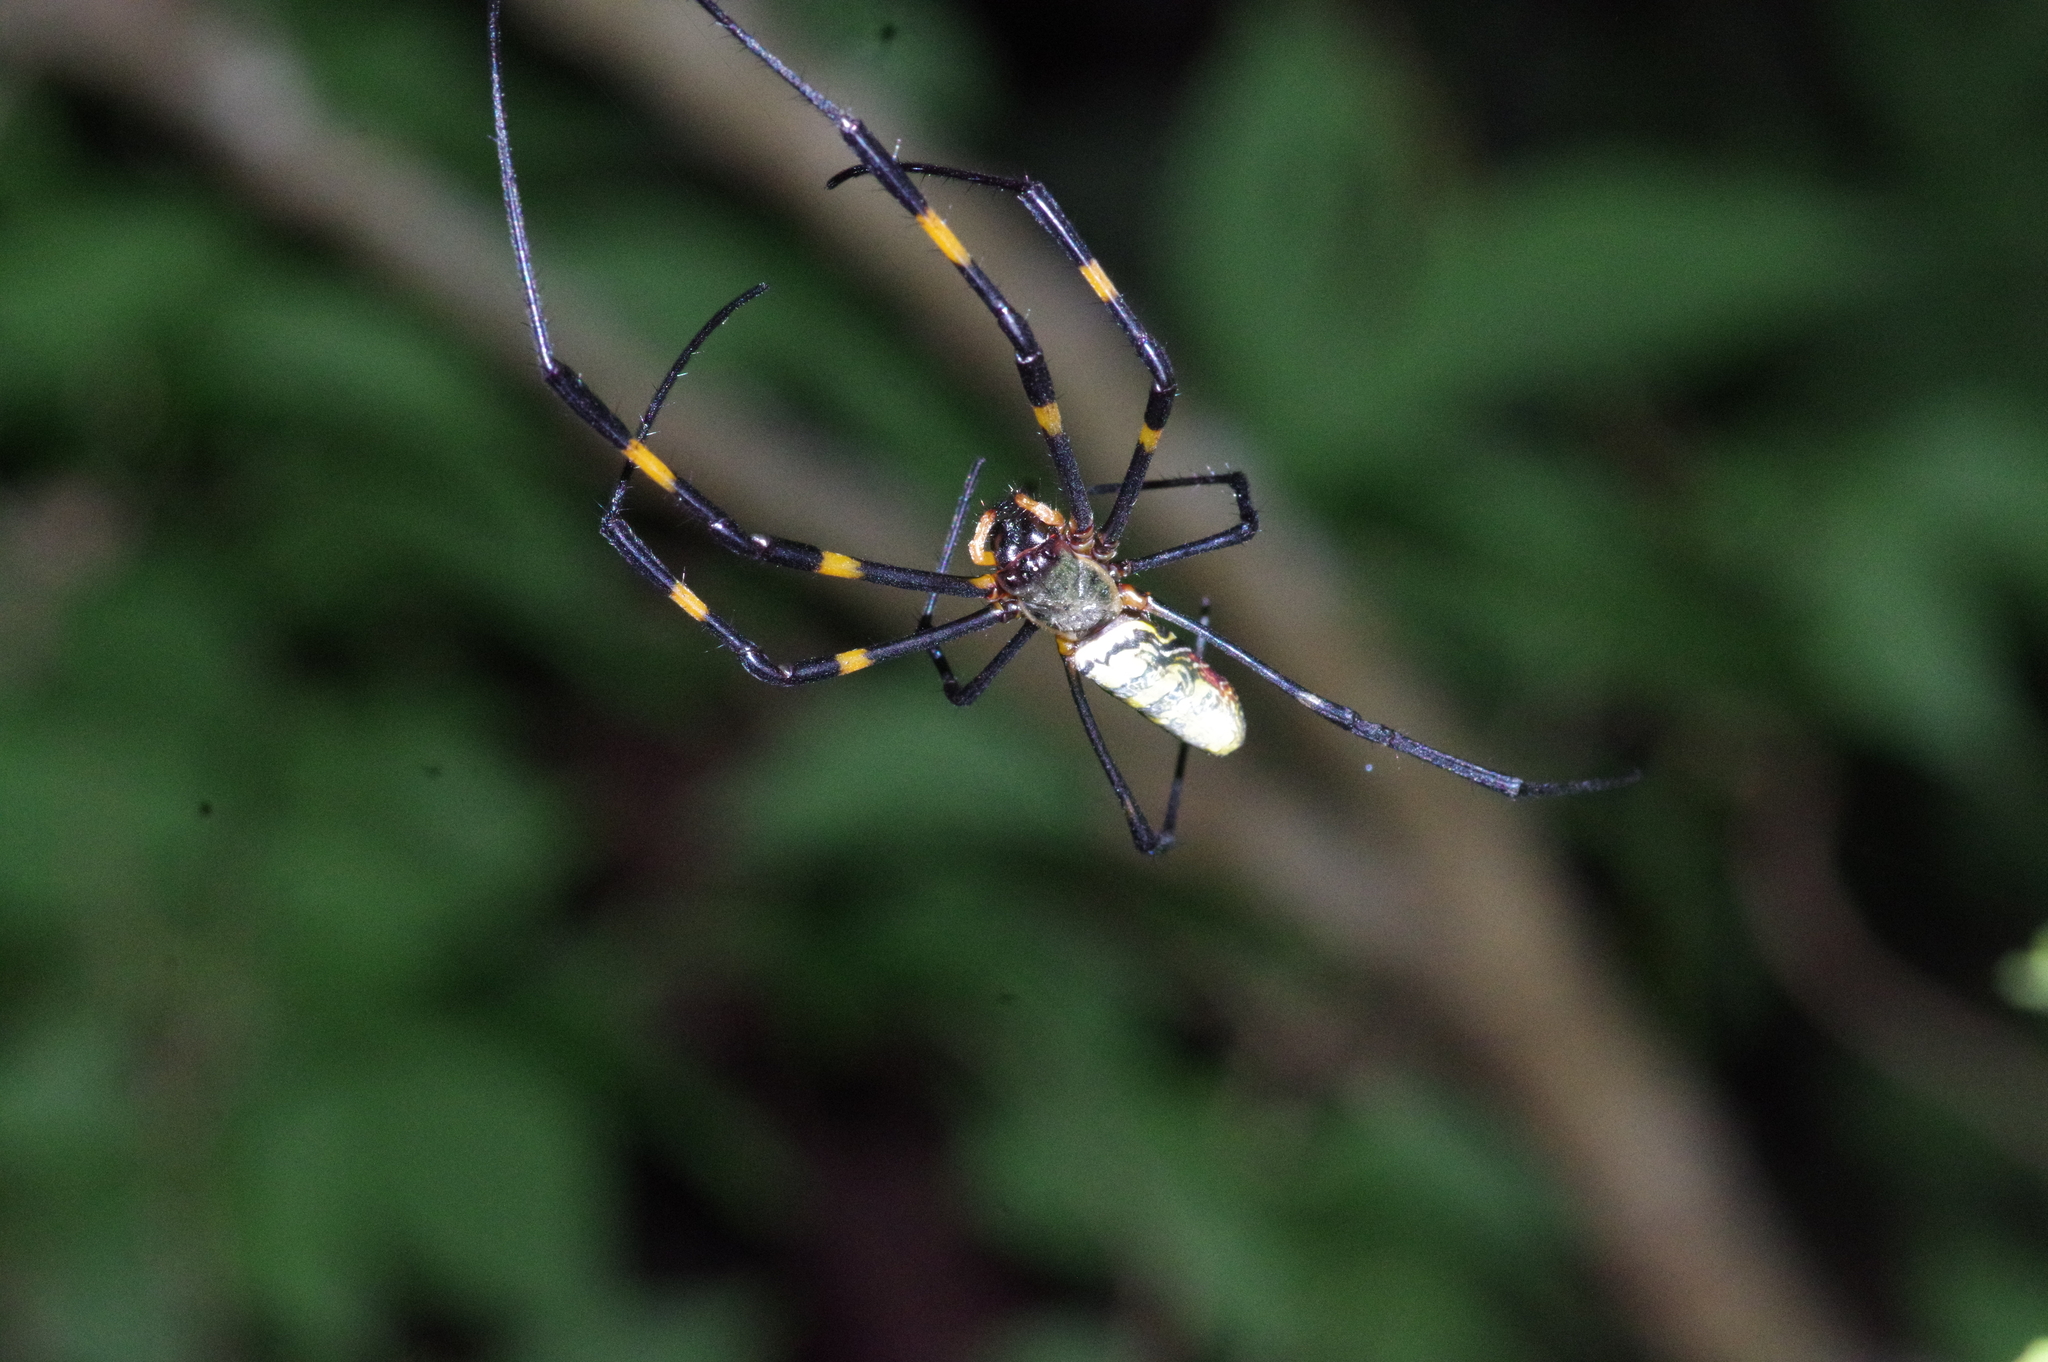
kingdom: Animalia
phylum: Arthropoda
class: Arachnida
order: Araneae
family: Araneidae
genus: Trichonephila
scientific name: Trichonephila clavata
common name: Jorō spider
